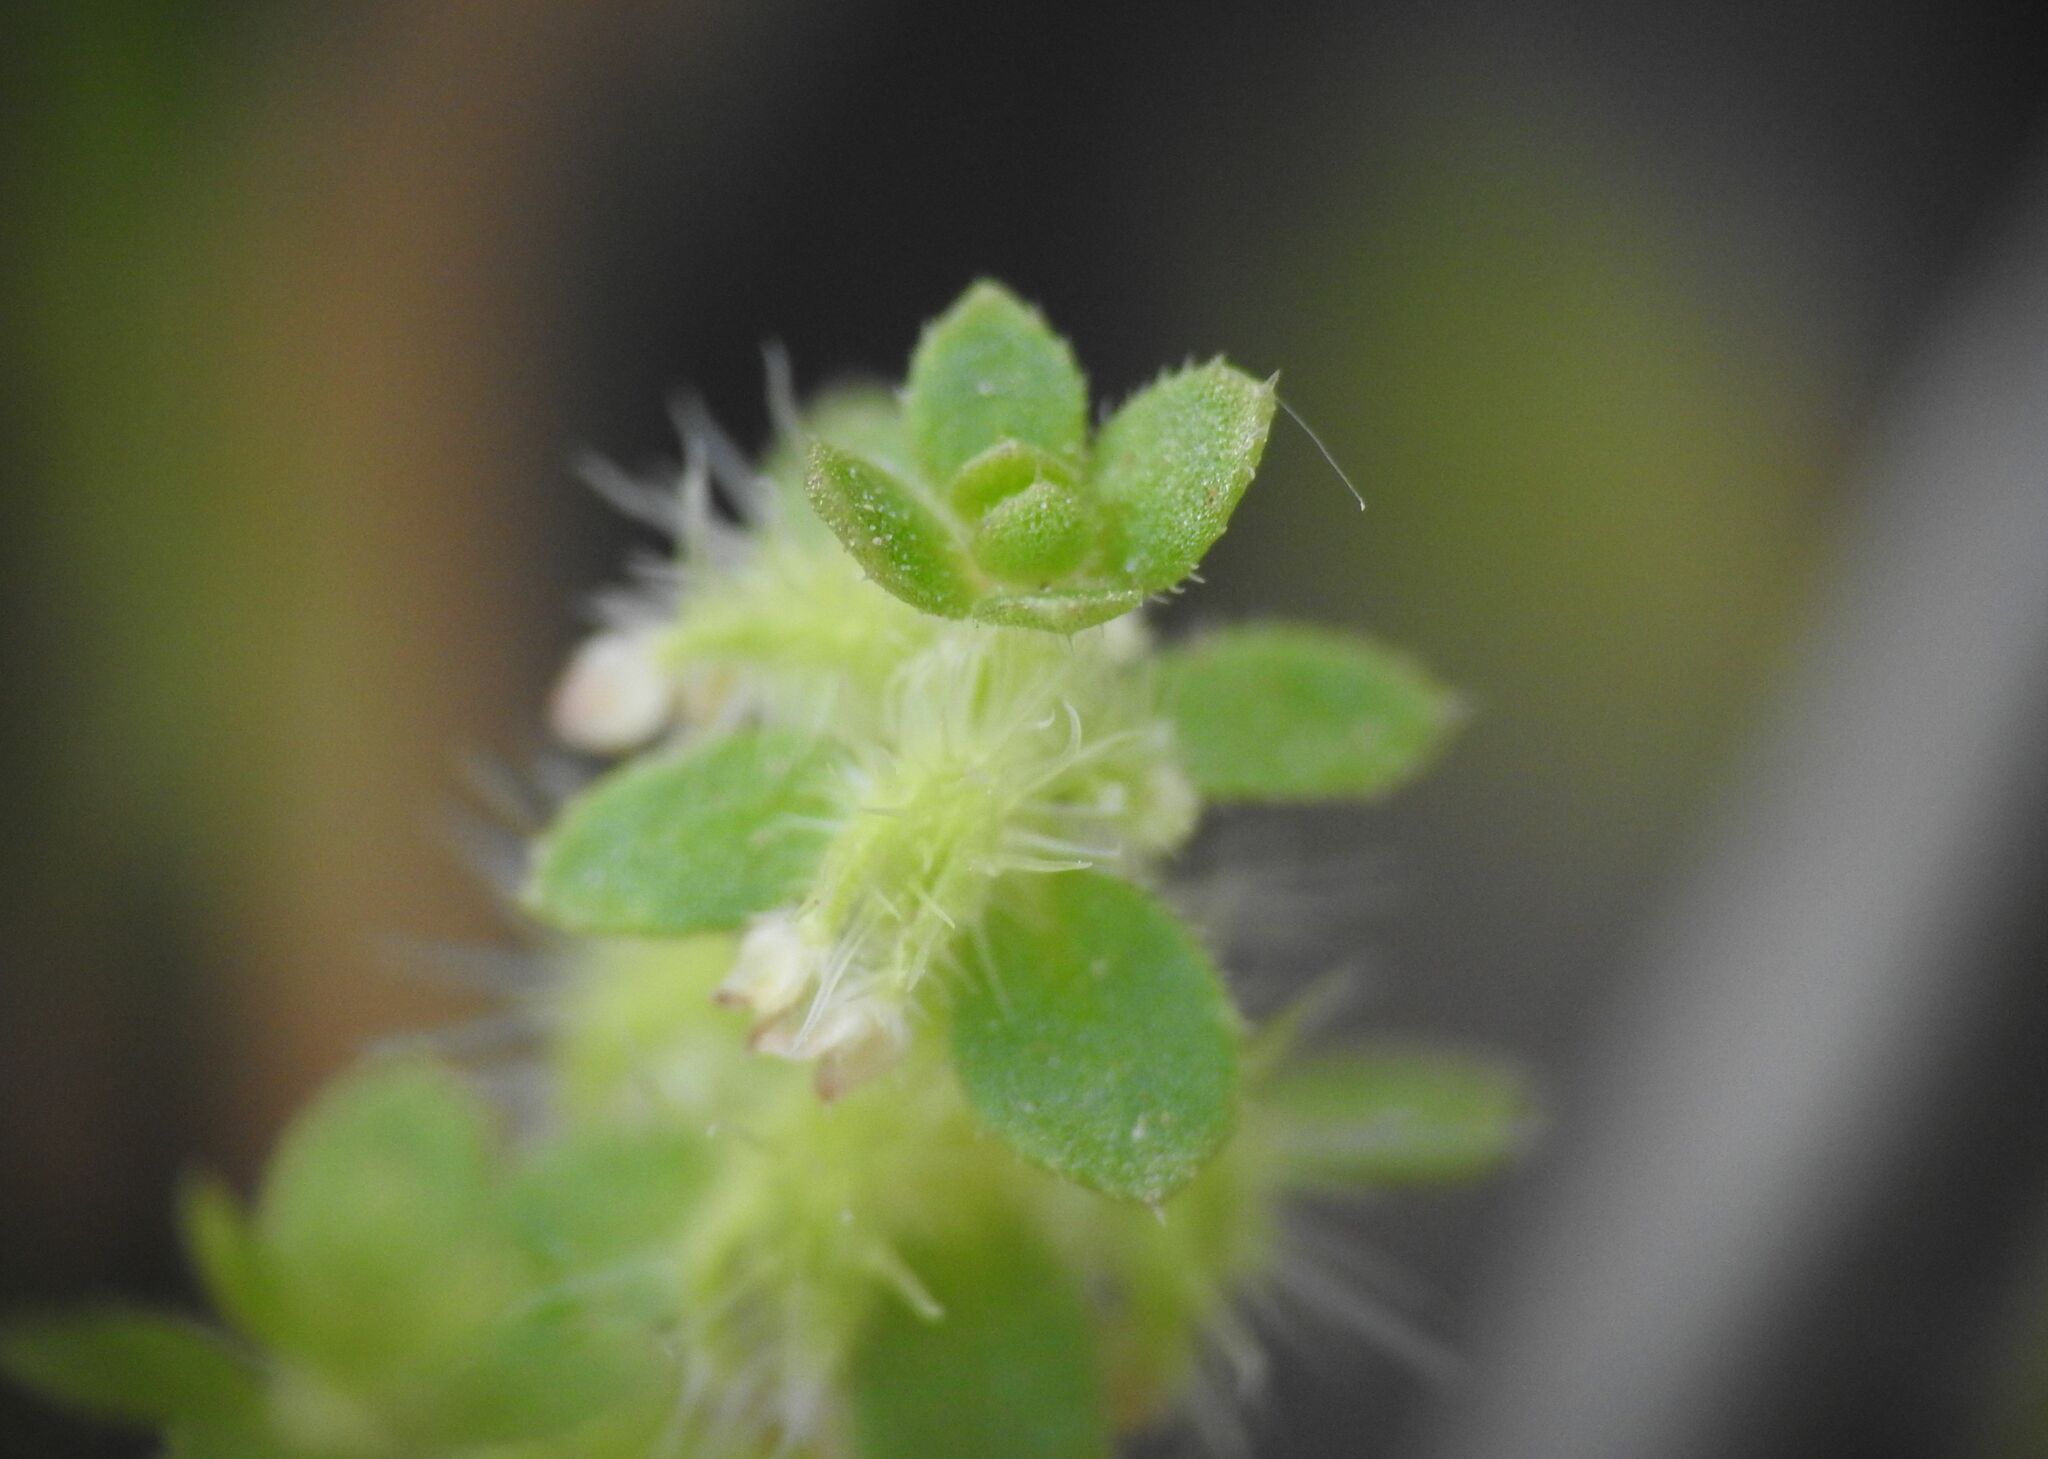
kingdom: Plantae
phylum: Tracheophyta
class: Magnoliopsida
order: Gentianales
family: Rubiaceae
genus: Valantia
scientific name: Valantia hispida
